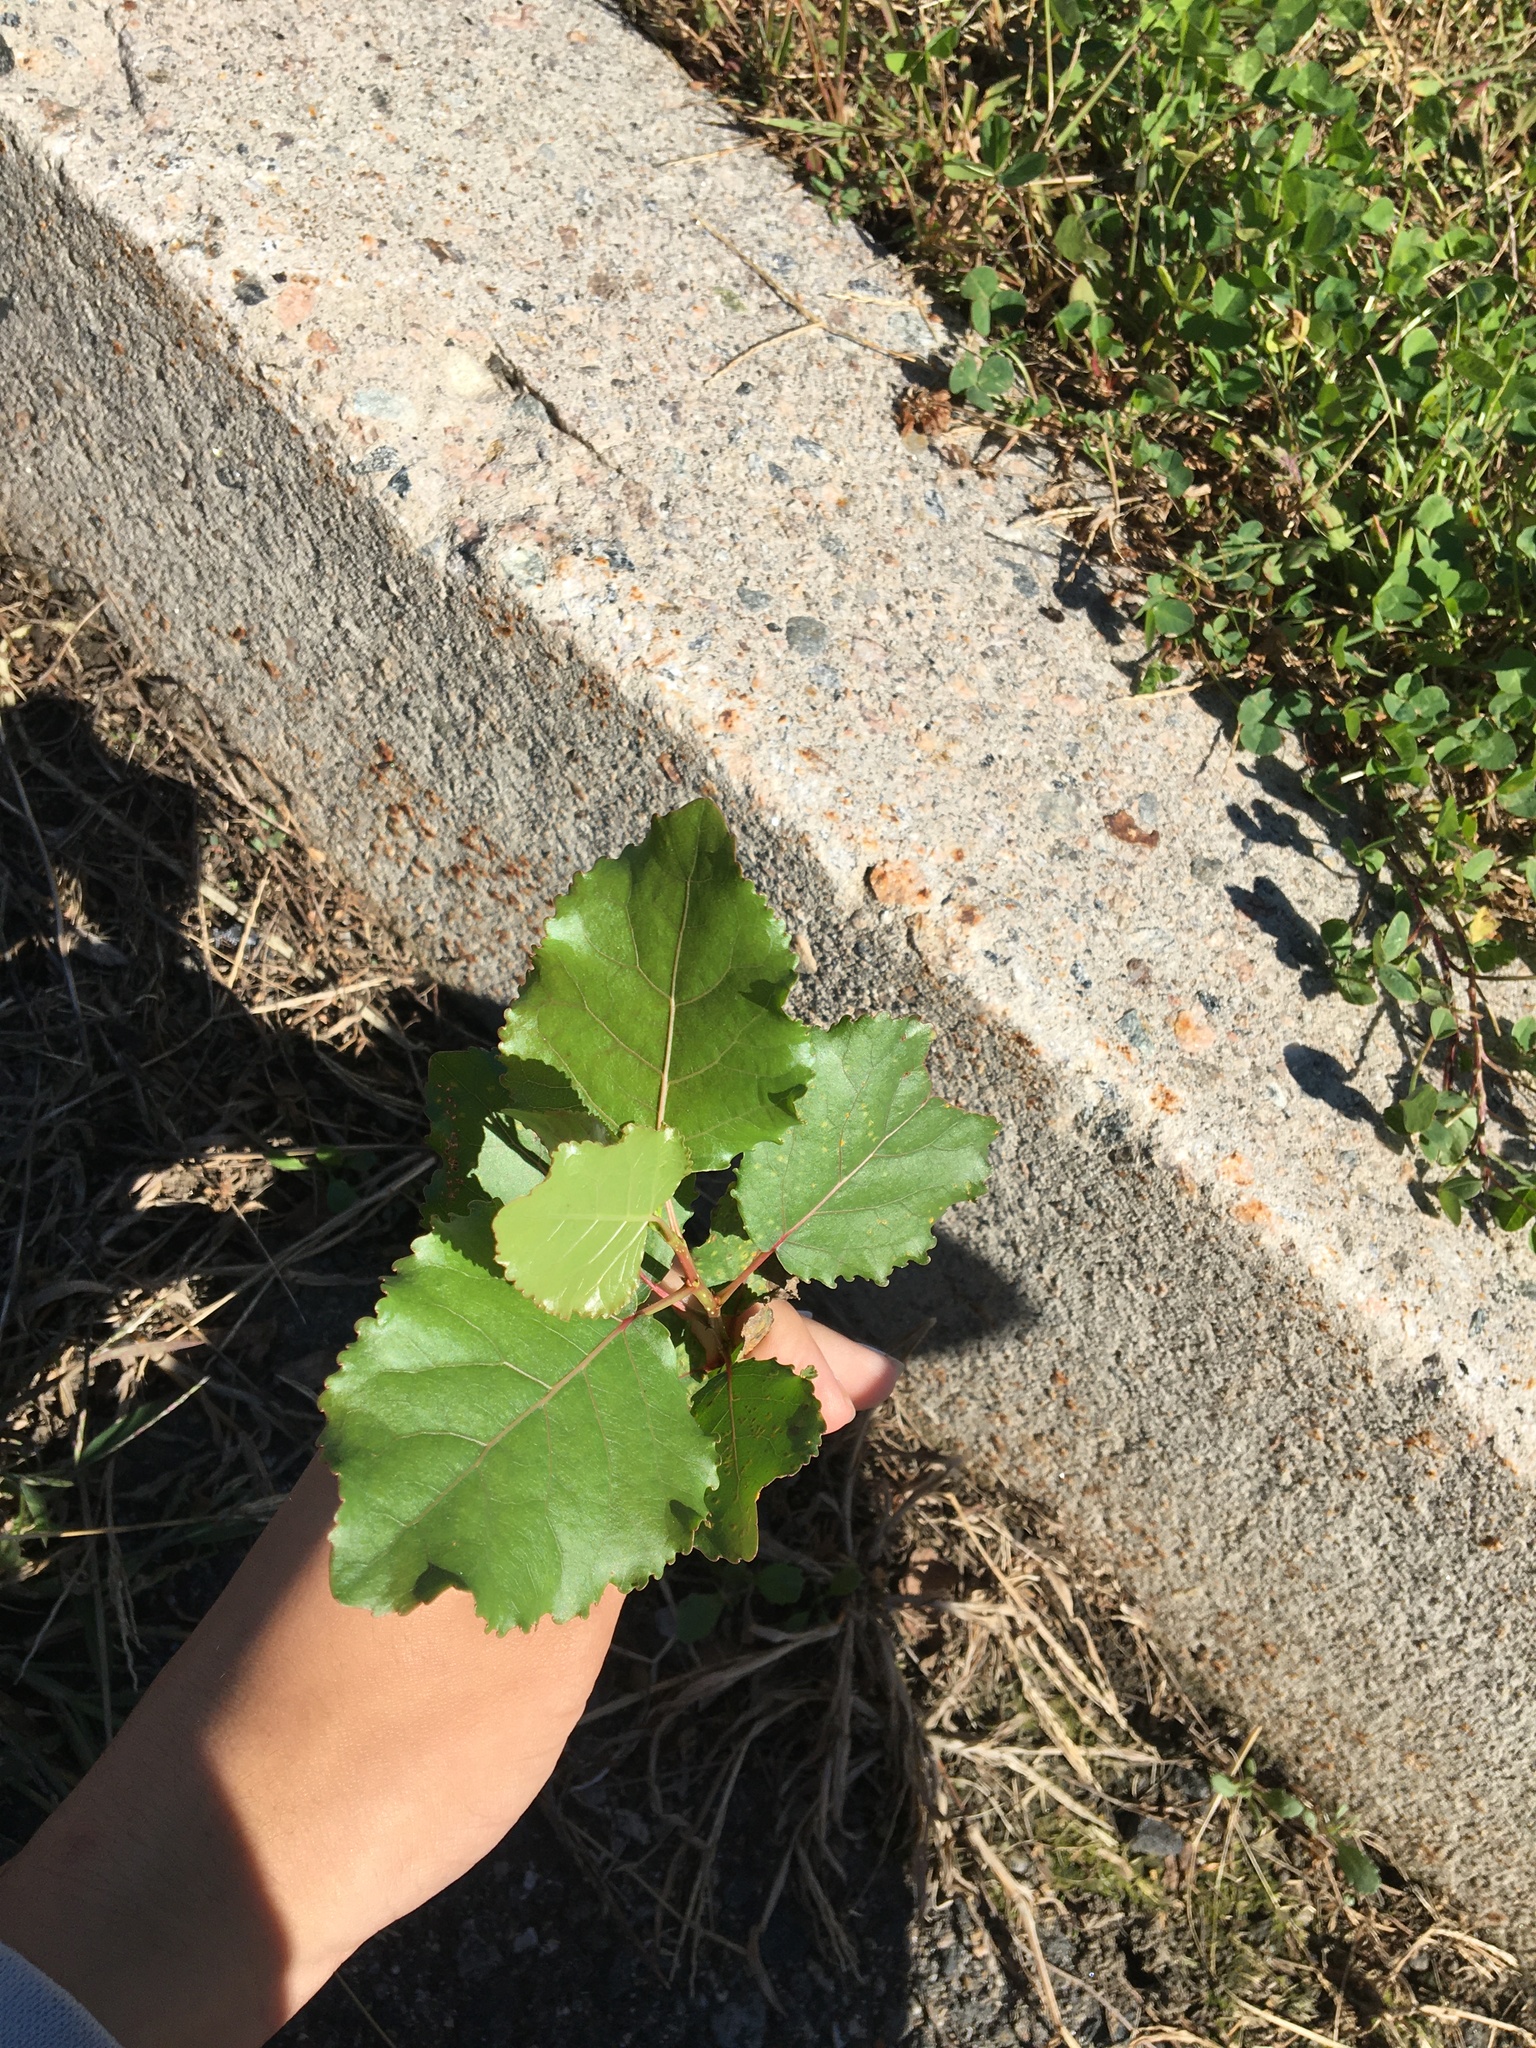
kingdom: Plantae
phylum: Tracheophyta
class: Magnoliopsida
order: Malpighiales
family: Salicaceae
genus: Populus
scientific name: Populus deltoides
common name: Eastern cottonwood
